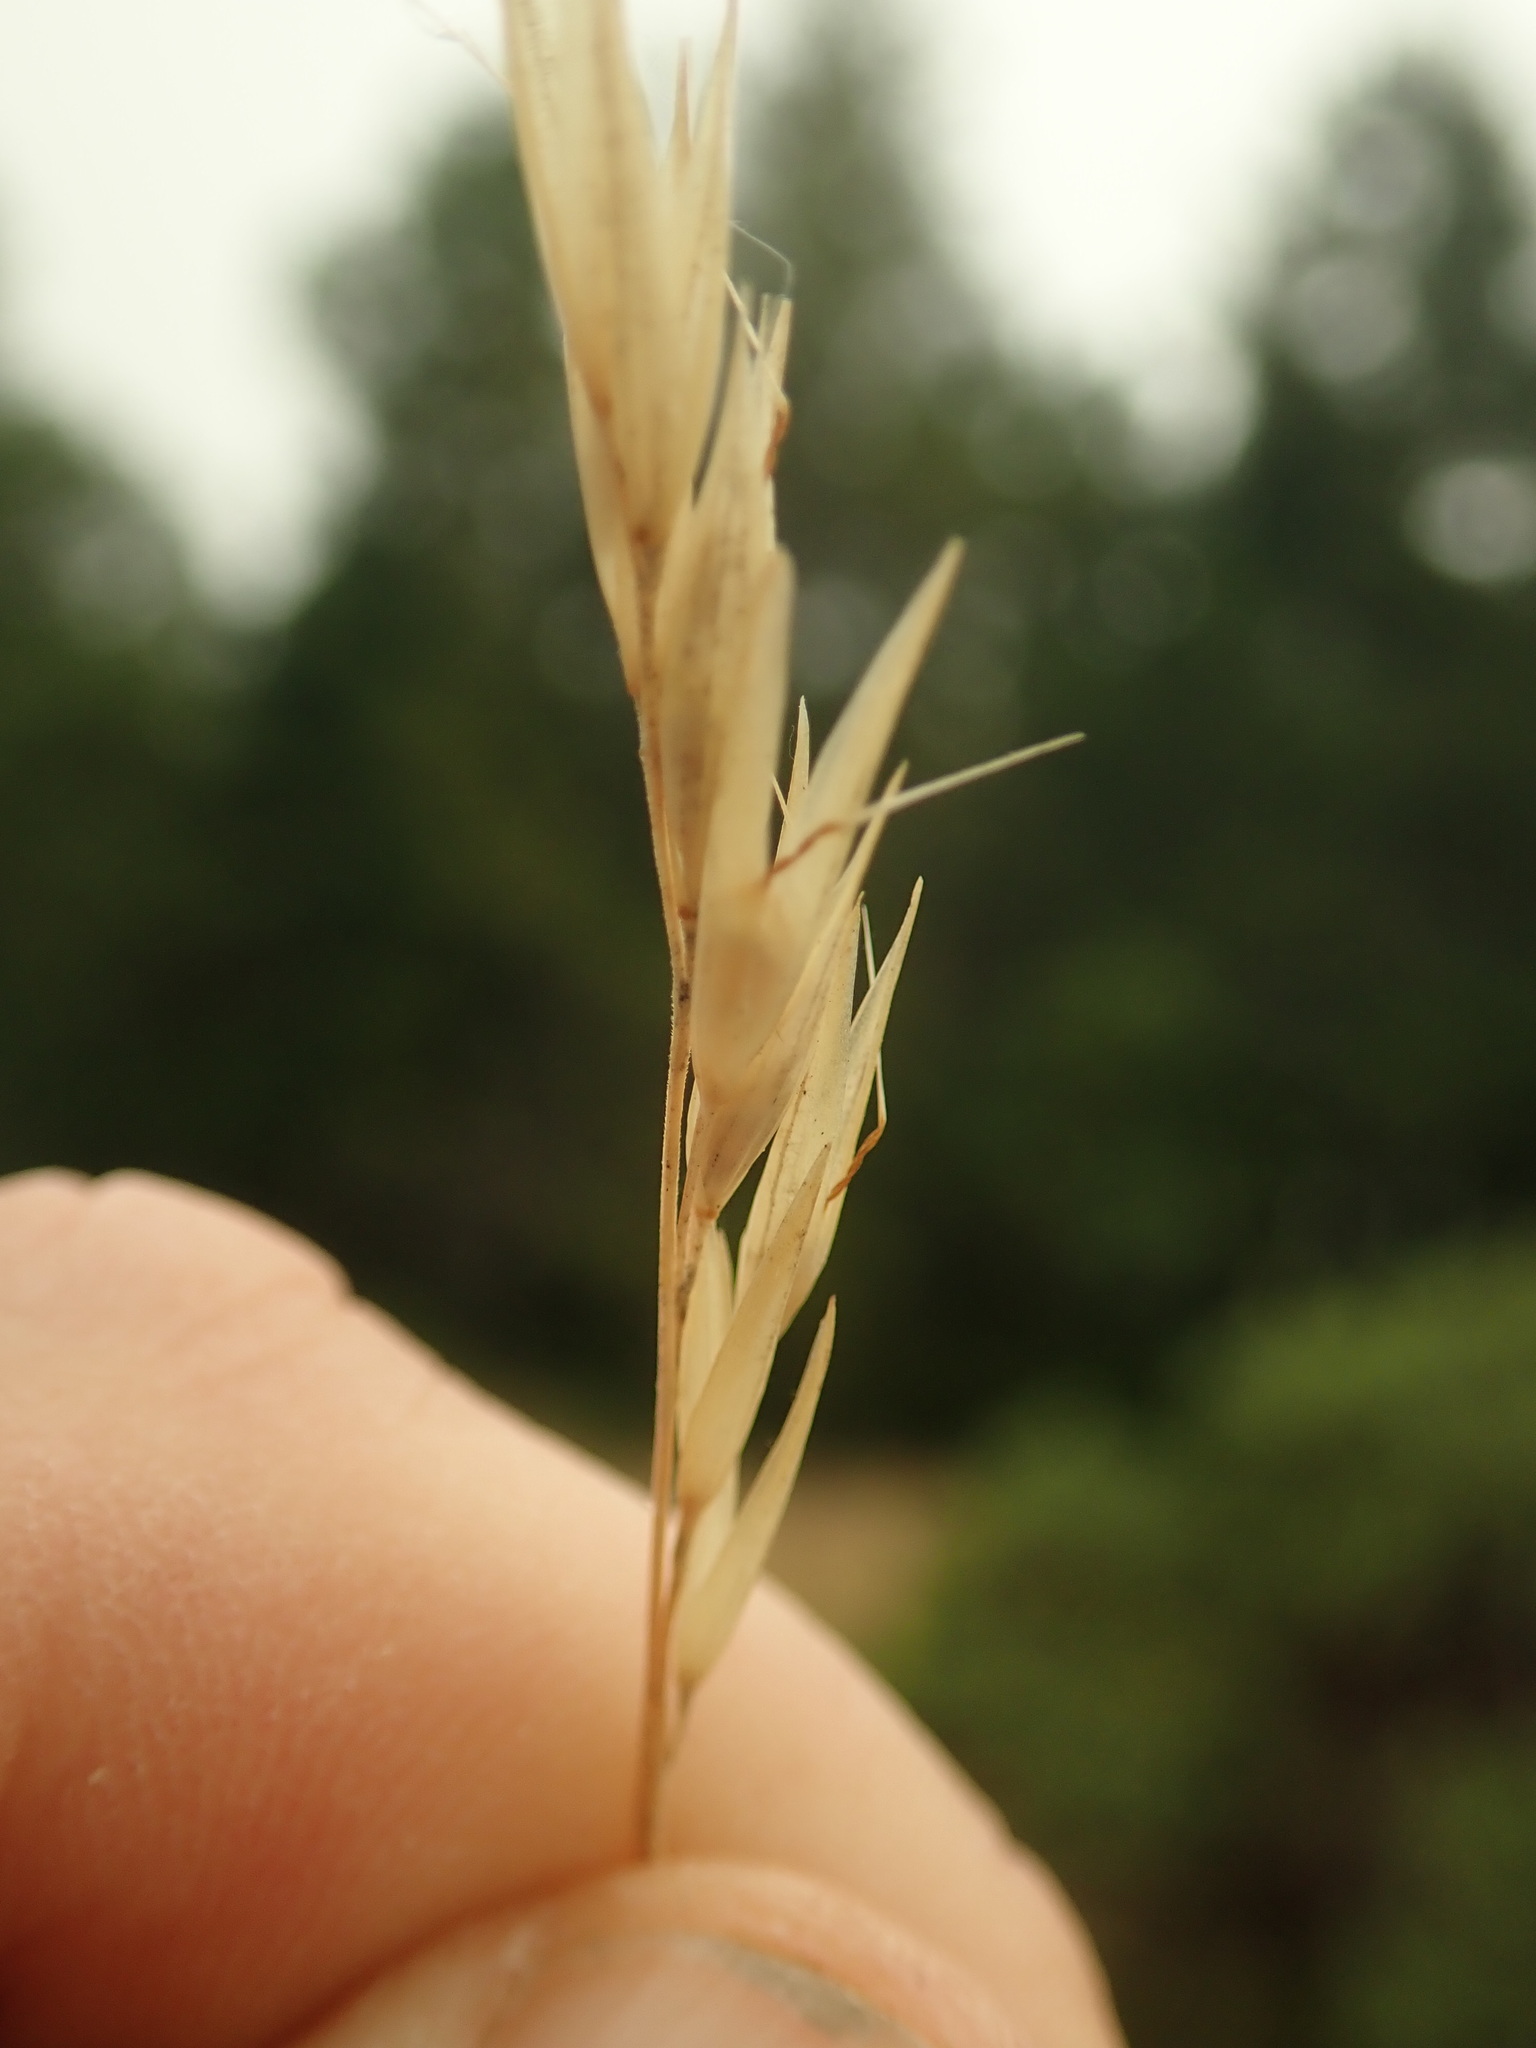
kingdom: Plantae
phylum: Tracheophyta
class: Liliopsida
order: Poales
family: Poaceae
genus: Danthonia
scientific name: Danthonia spicata
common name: Common wild oatgrass
